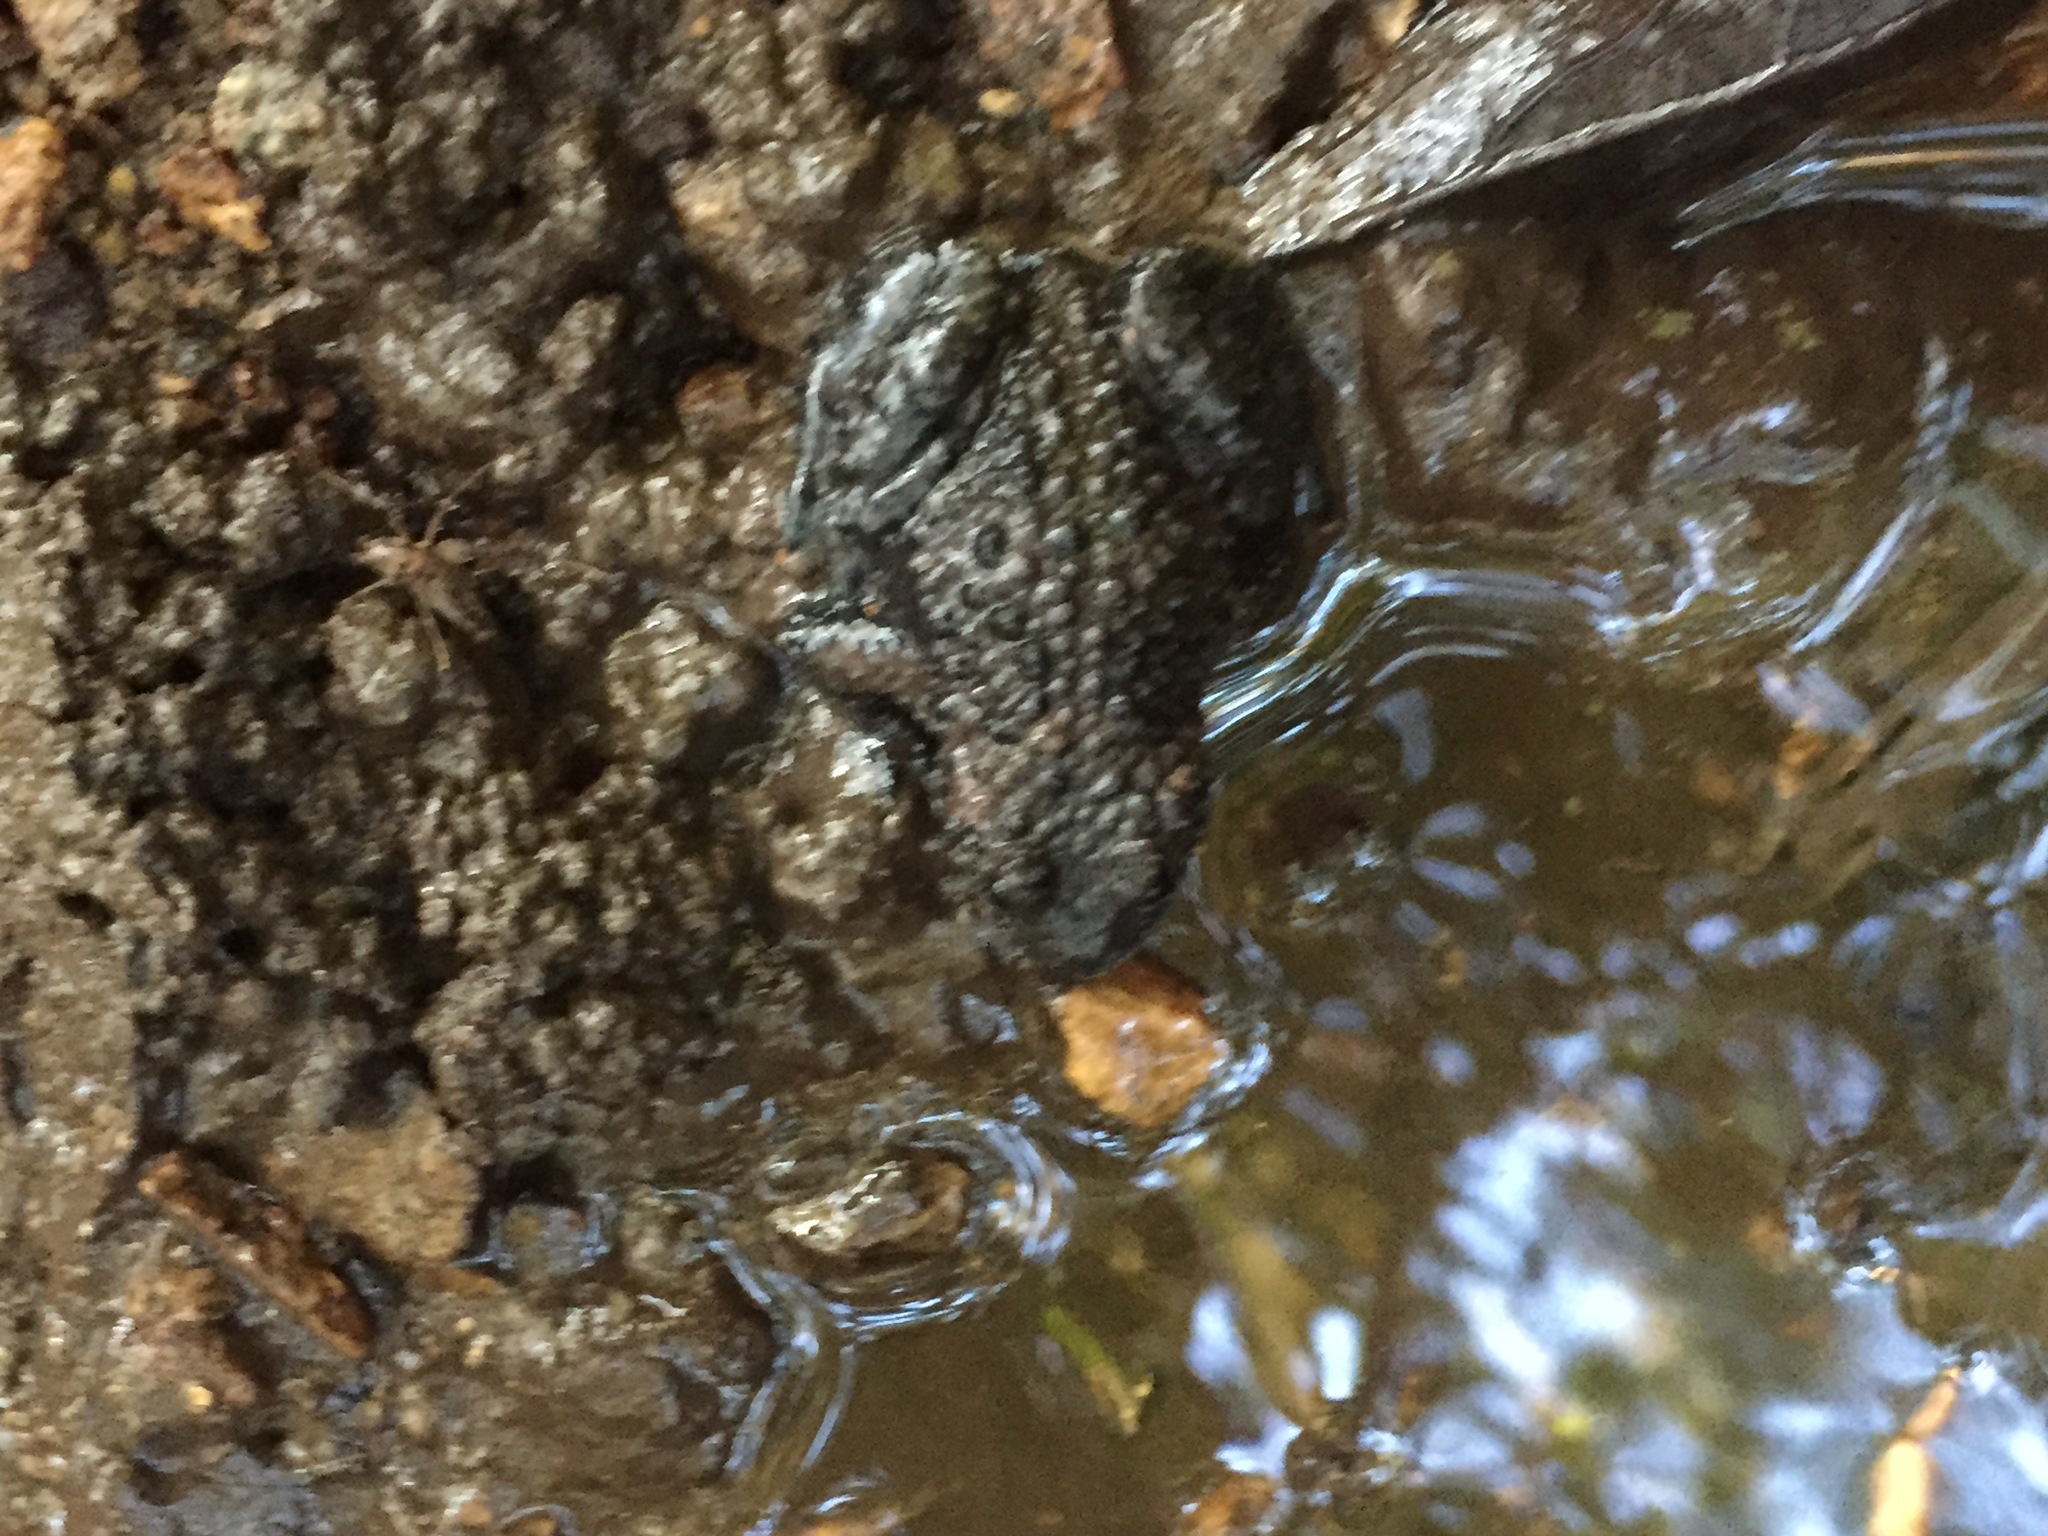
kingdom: Animalia
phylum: Chordata
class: Amphibia
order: Anura
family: Bombinatoridae
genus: Bombina
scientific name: Bombina orientalis
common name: Oriental firebelly toad
